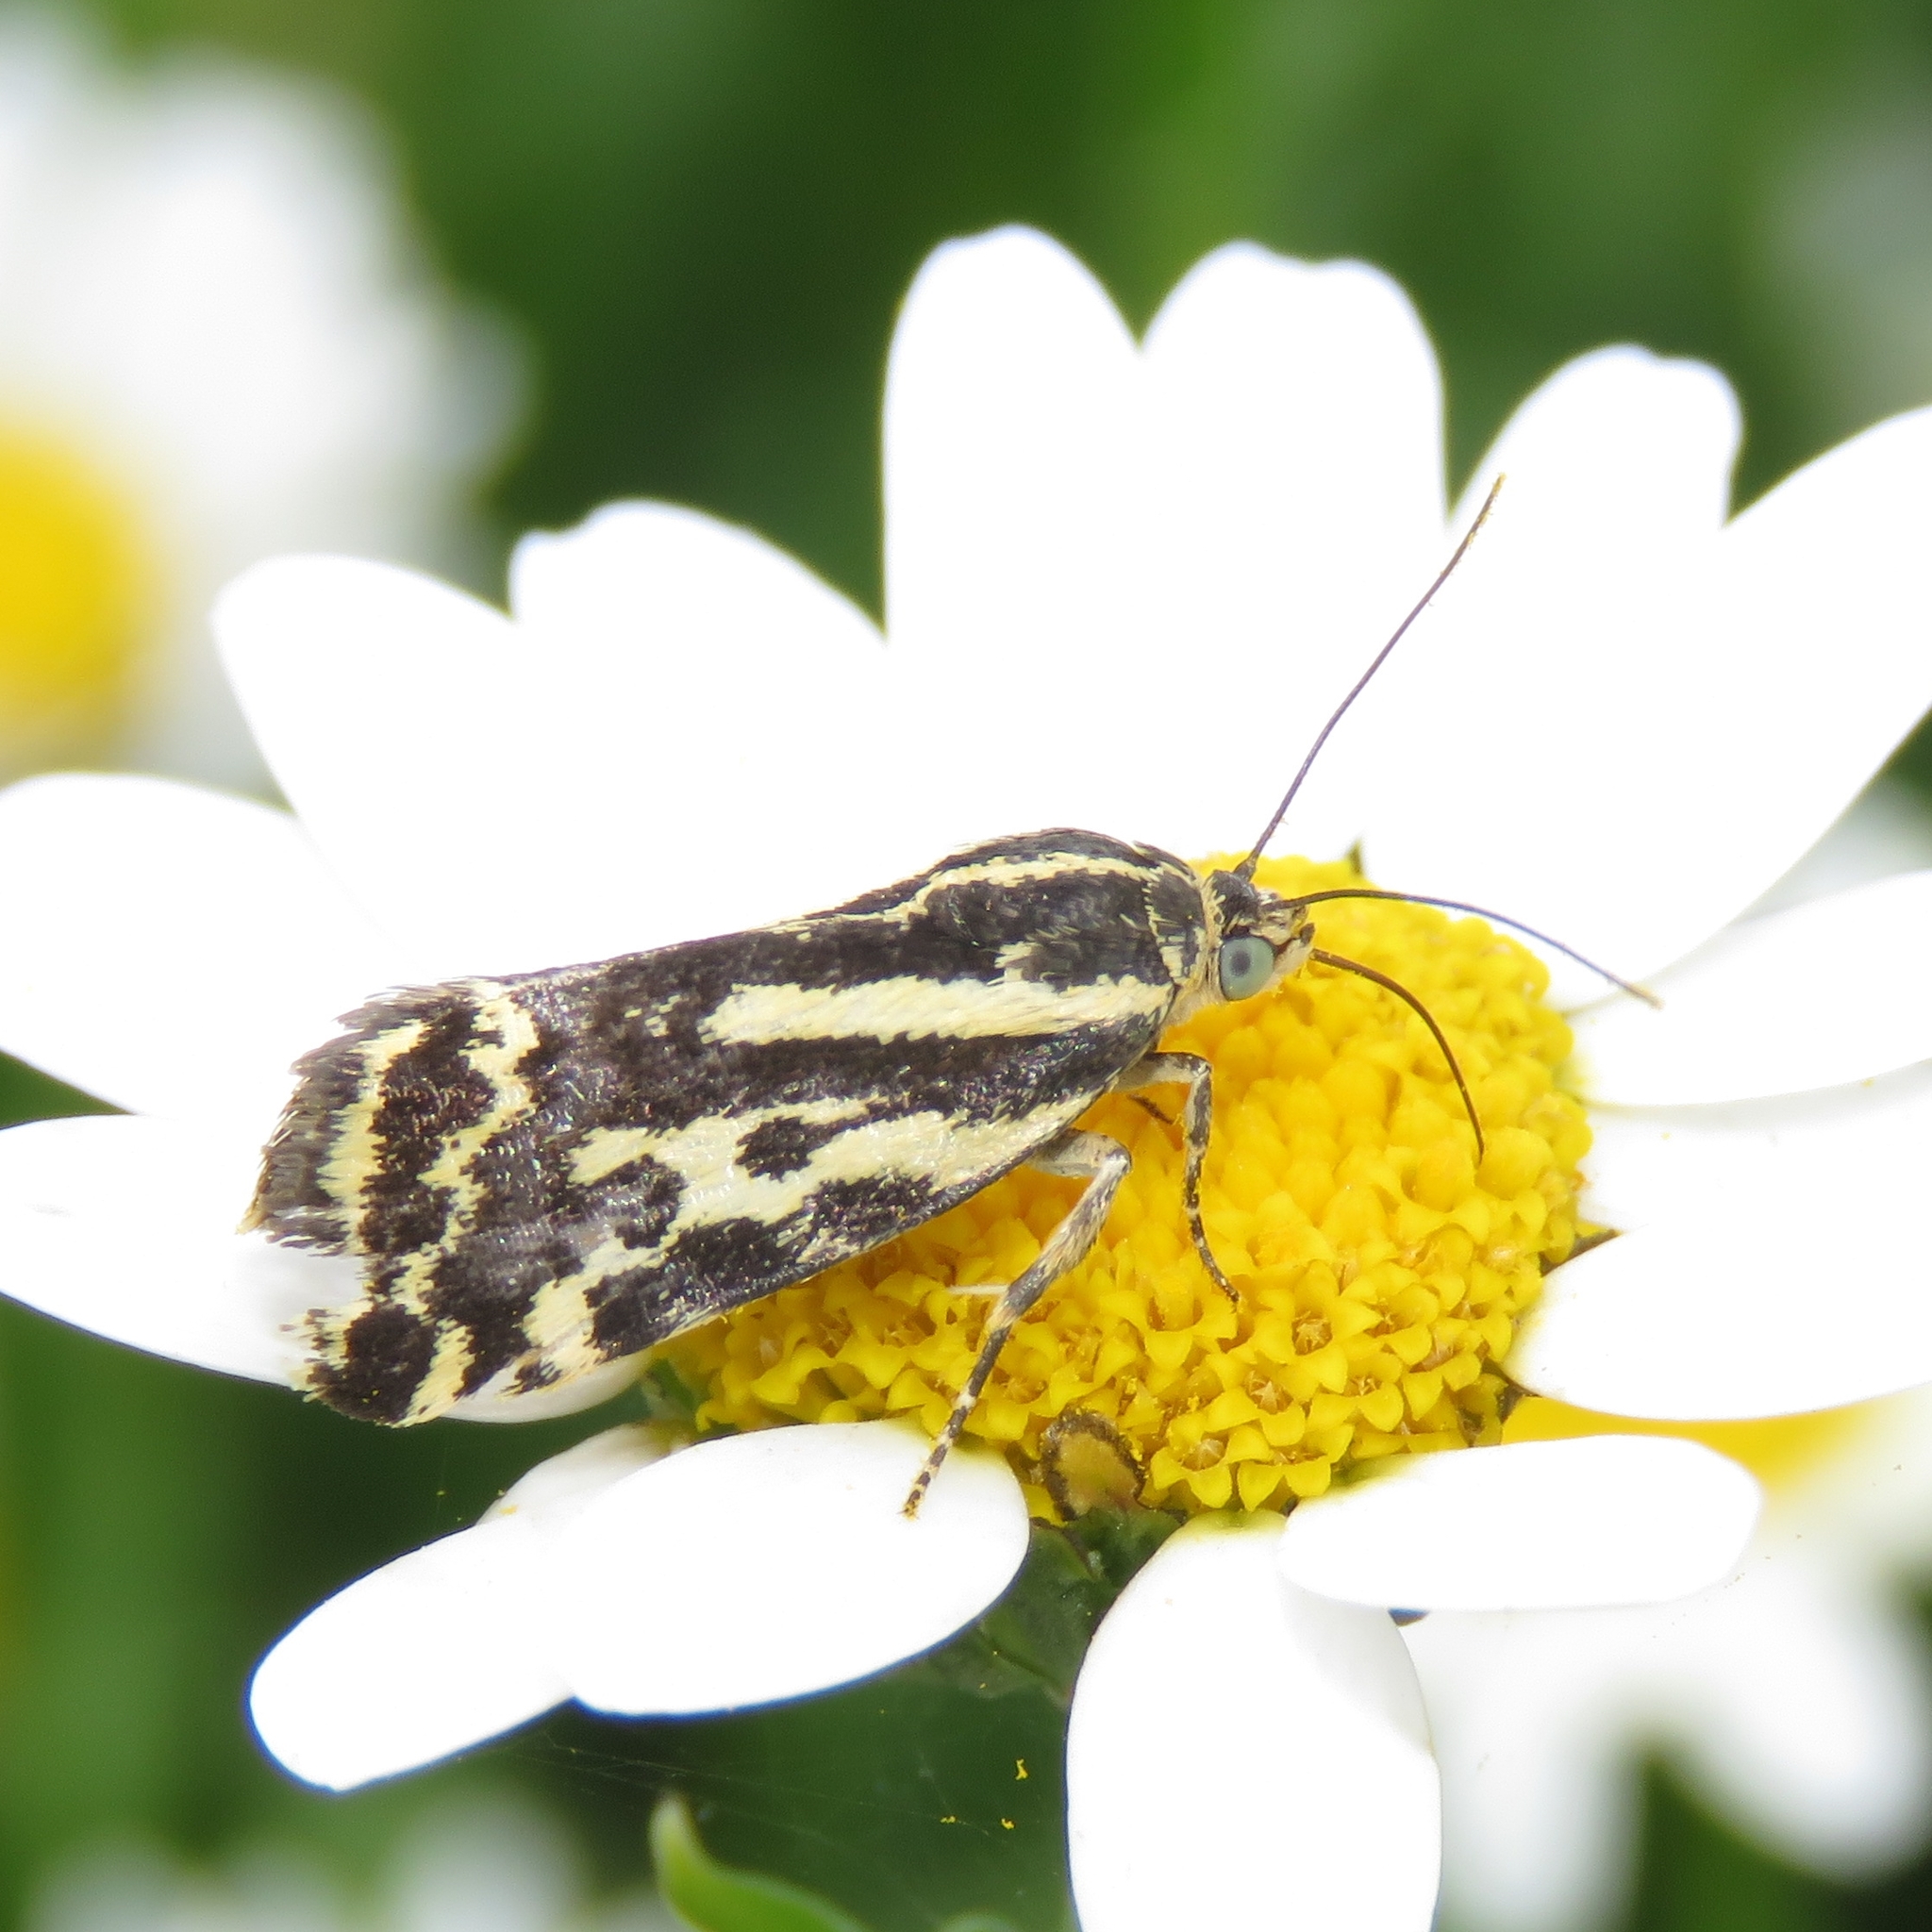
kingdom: Animalia
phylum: Arthropoda
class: Insecta
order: Lepidoptera
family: Noctuidae
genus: Acontia
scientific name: Acontia trabealis
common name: Spotted sulphur
